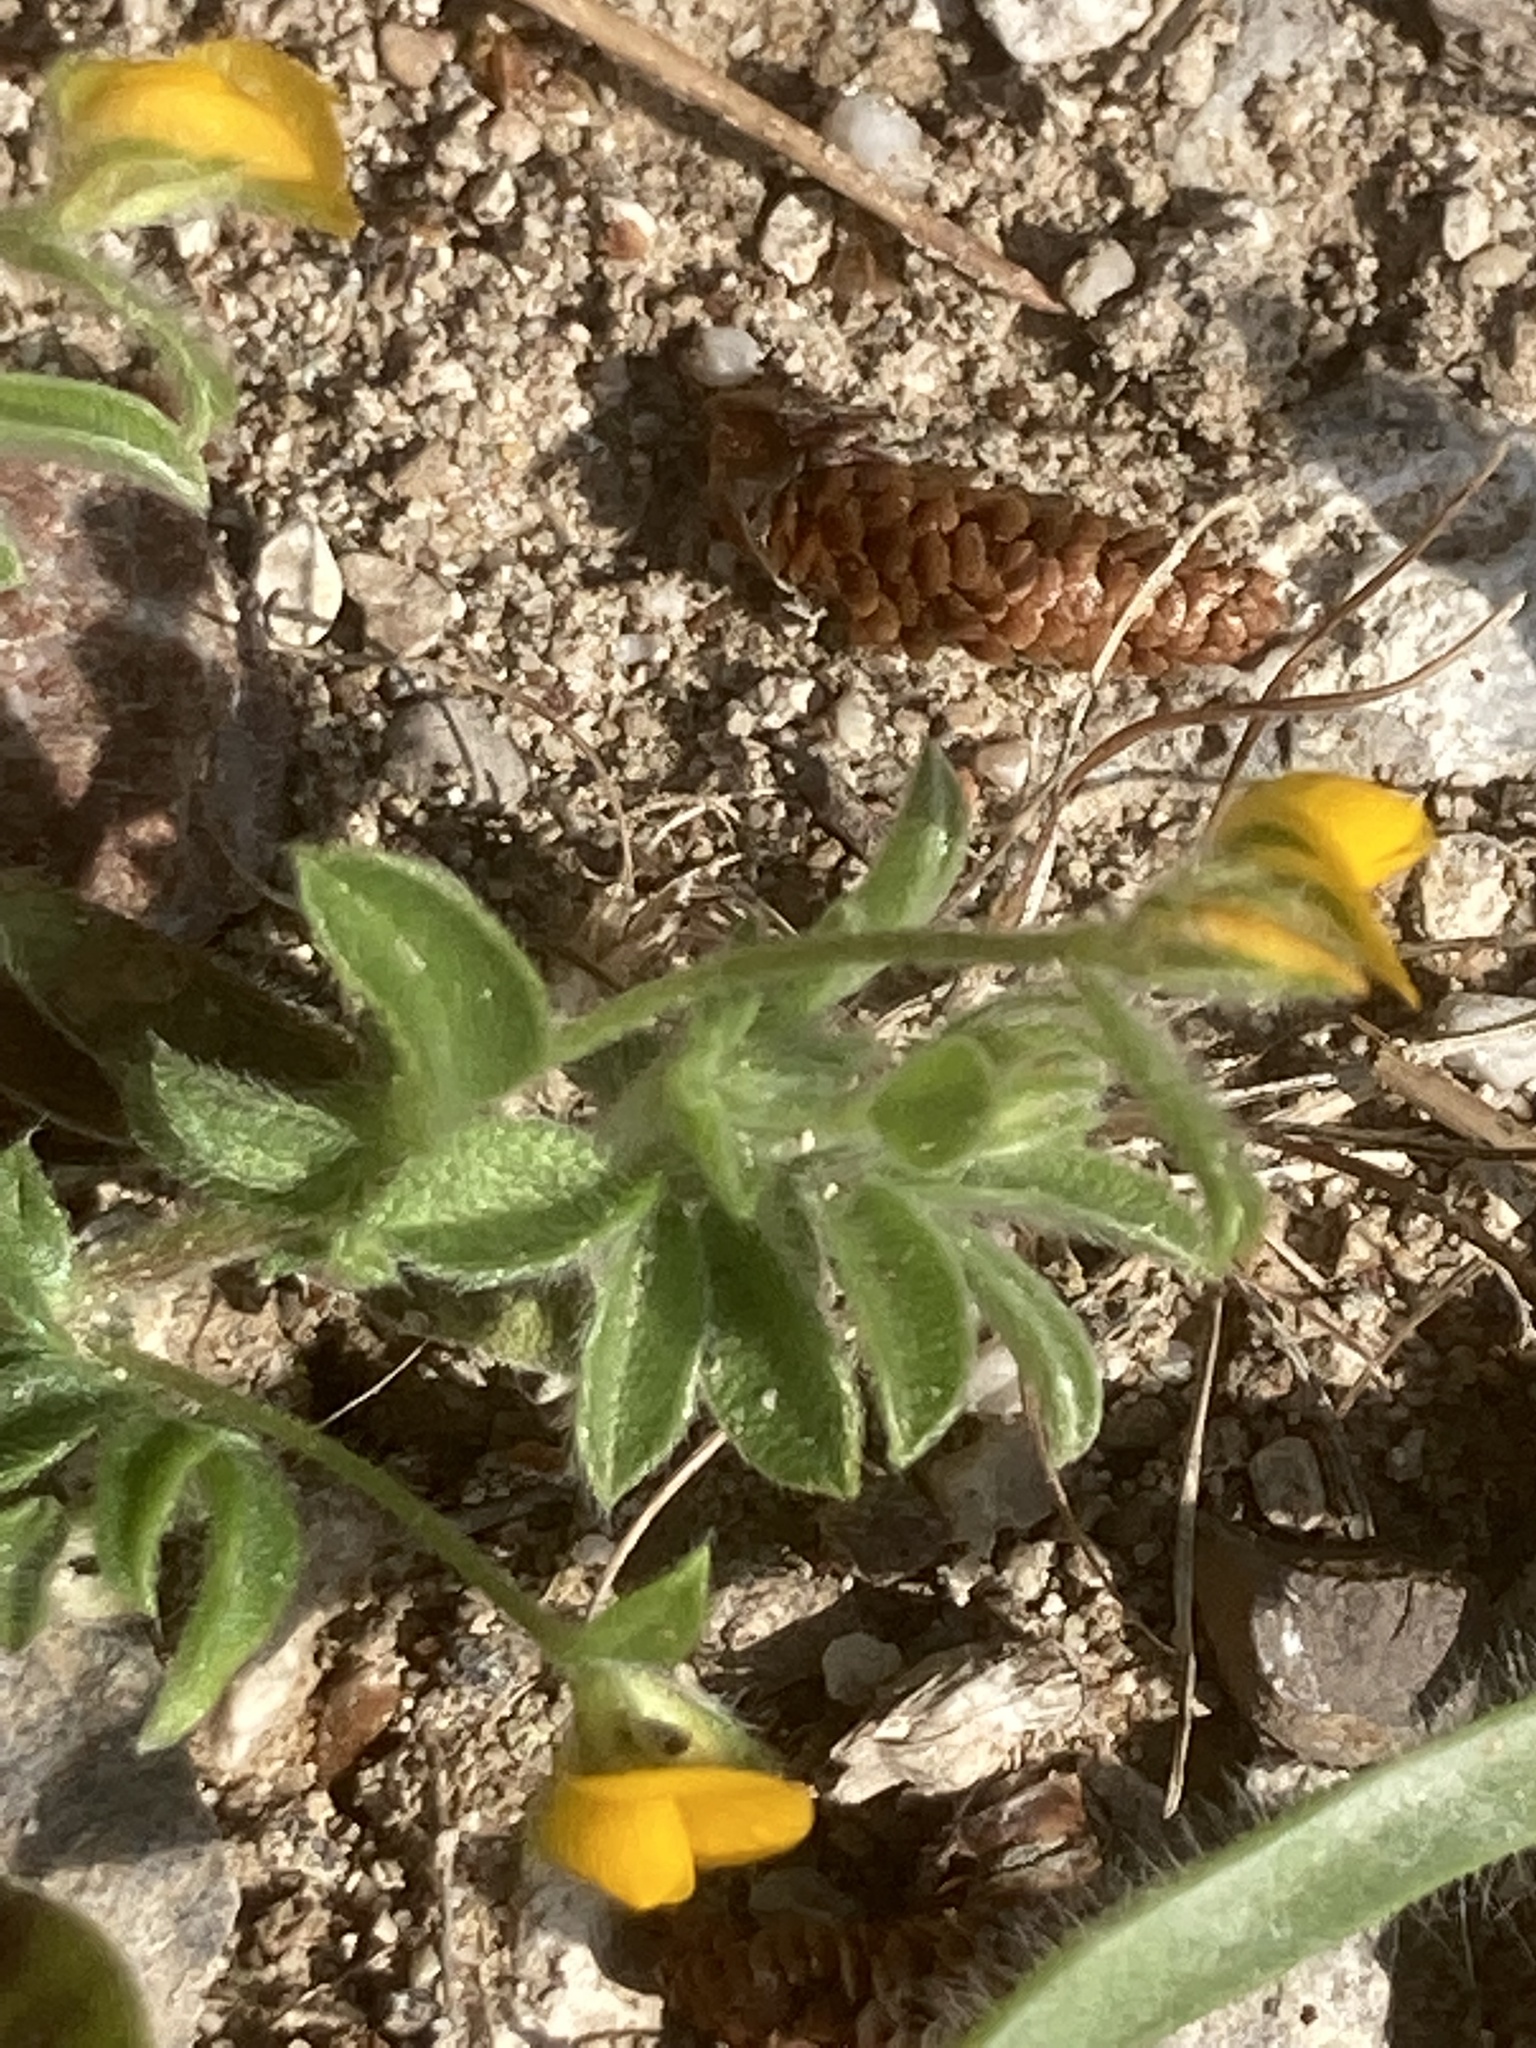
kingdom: Plantae
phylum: Tracheophyta
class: Magnoliopsida
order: Fabales
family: Fabaceae
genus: Anthyllis
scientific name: Anthyllis circinnata
